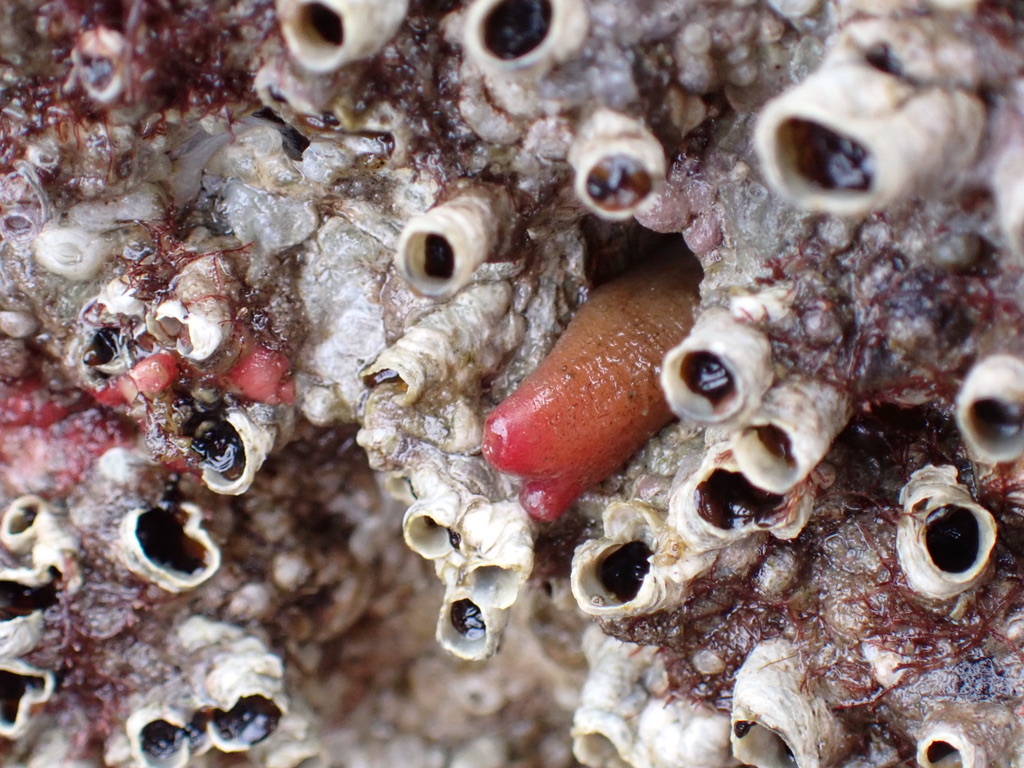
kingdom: Animalia
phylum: Mollusca
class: Bivalvia
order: Adapedonta
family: Hiatellidae
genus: Hiatella
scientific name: Hiatella arctica
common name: Arctic hiatella
